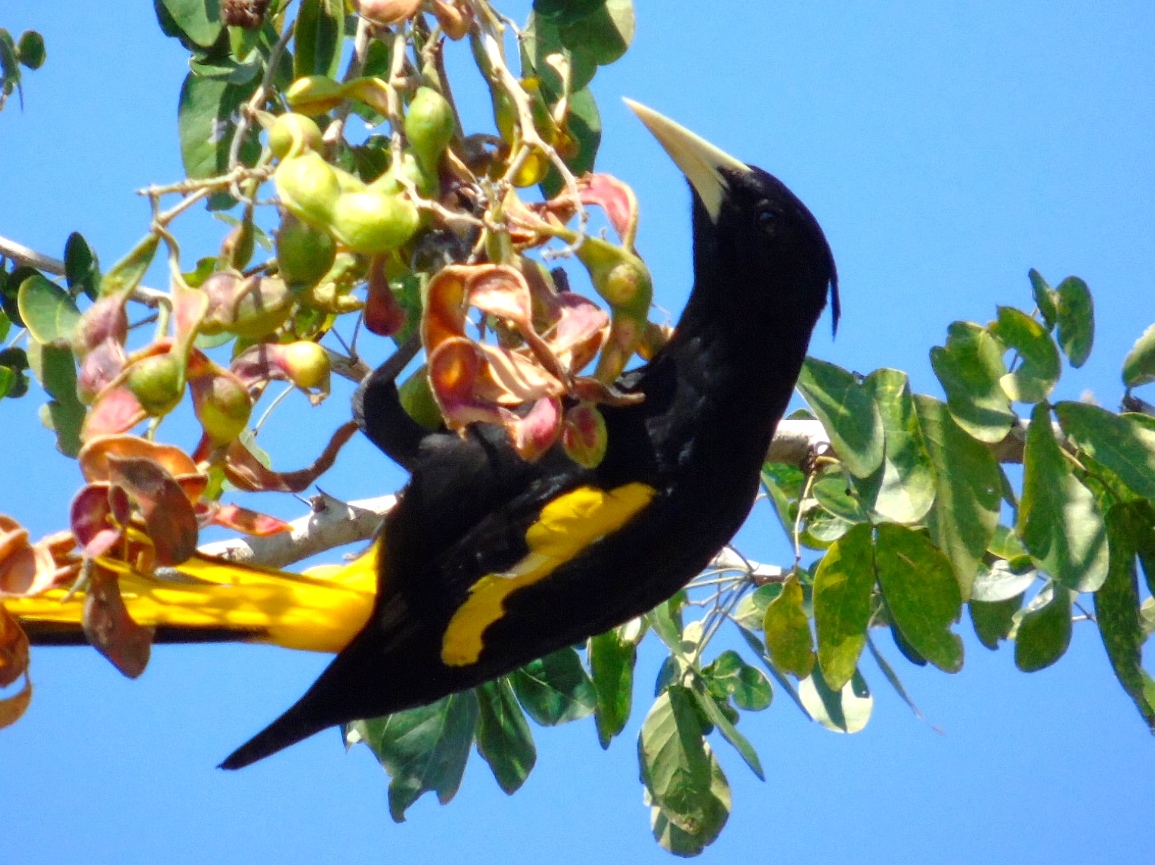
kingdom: Animalia
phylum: Chordata
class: Aves
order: Passeriformes
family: Icteridae
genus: Cacicus
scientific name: Cacicus melanicterus
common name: Yellow-winged cacique
